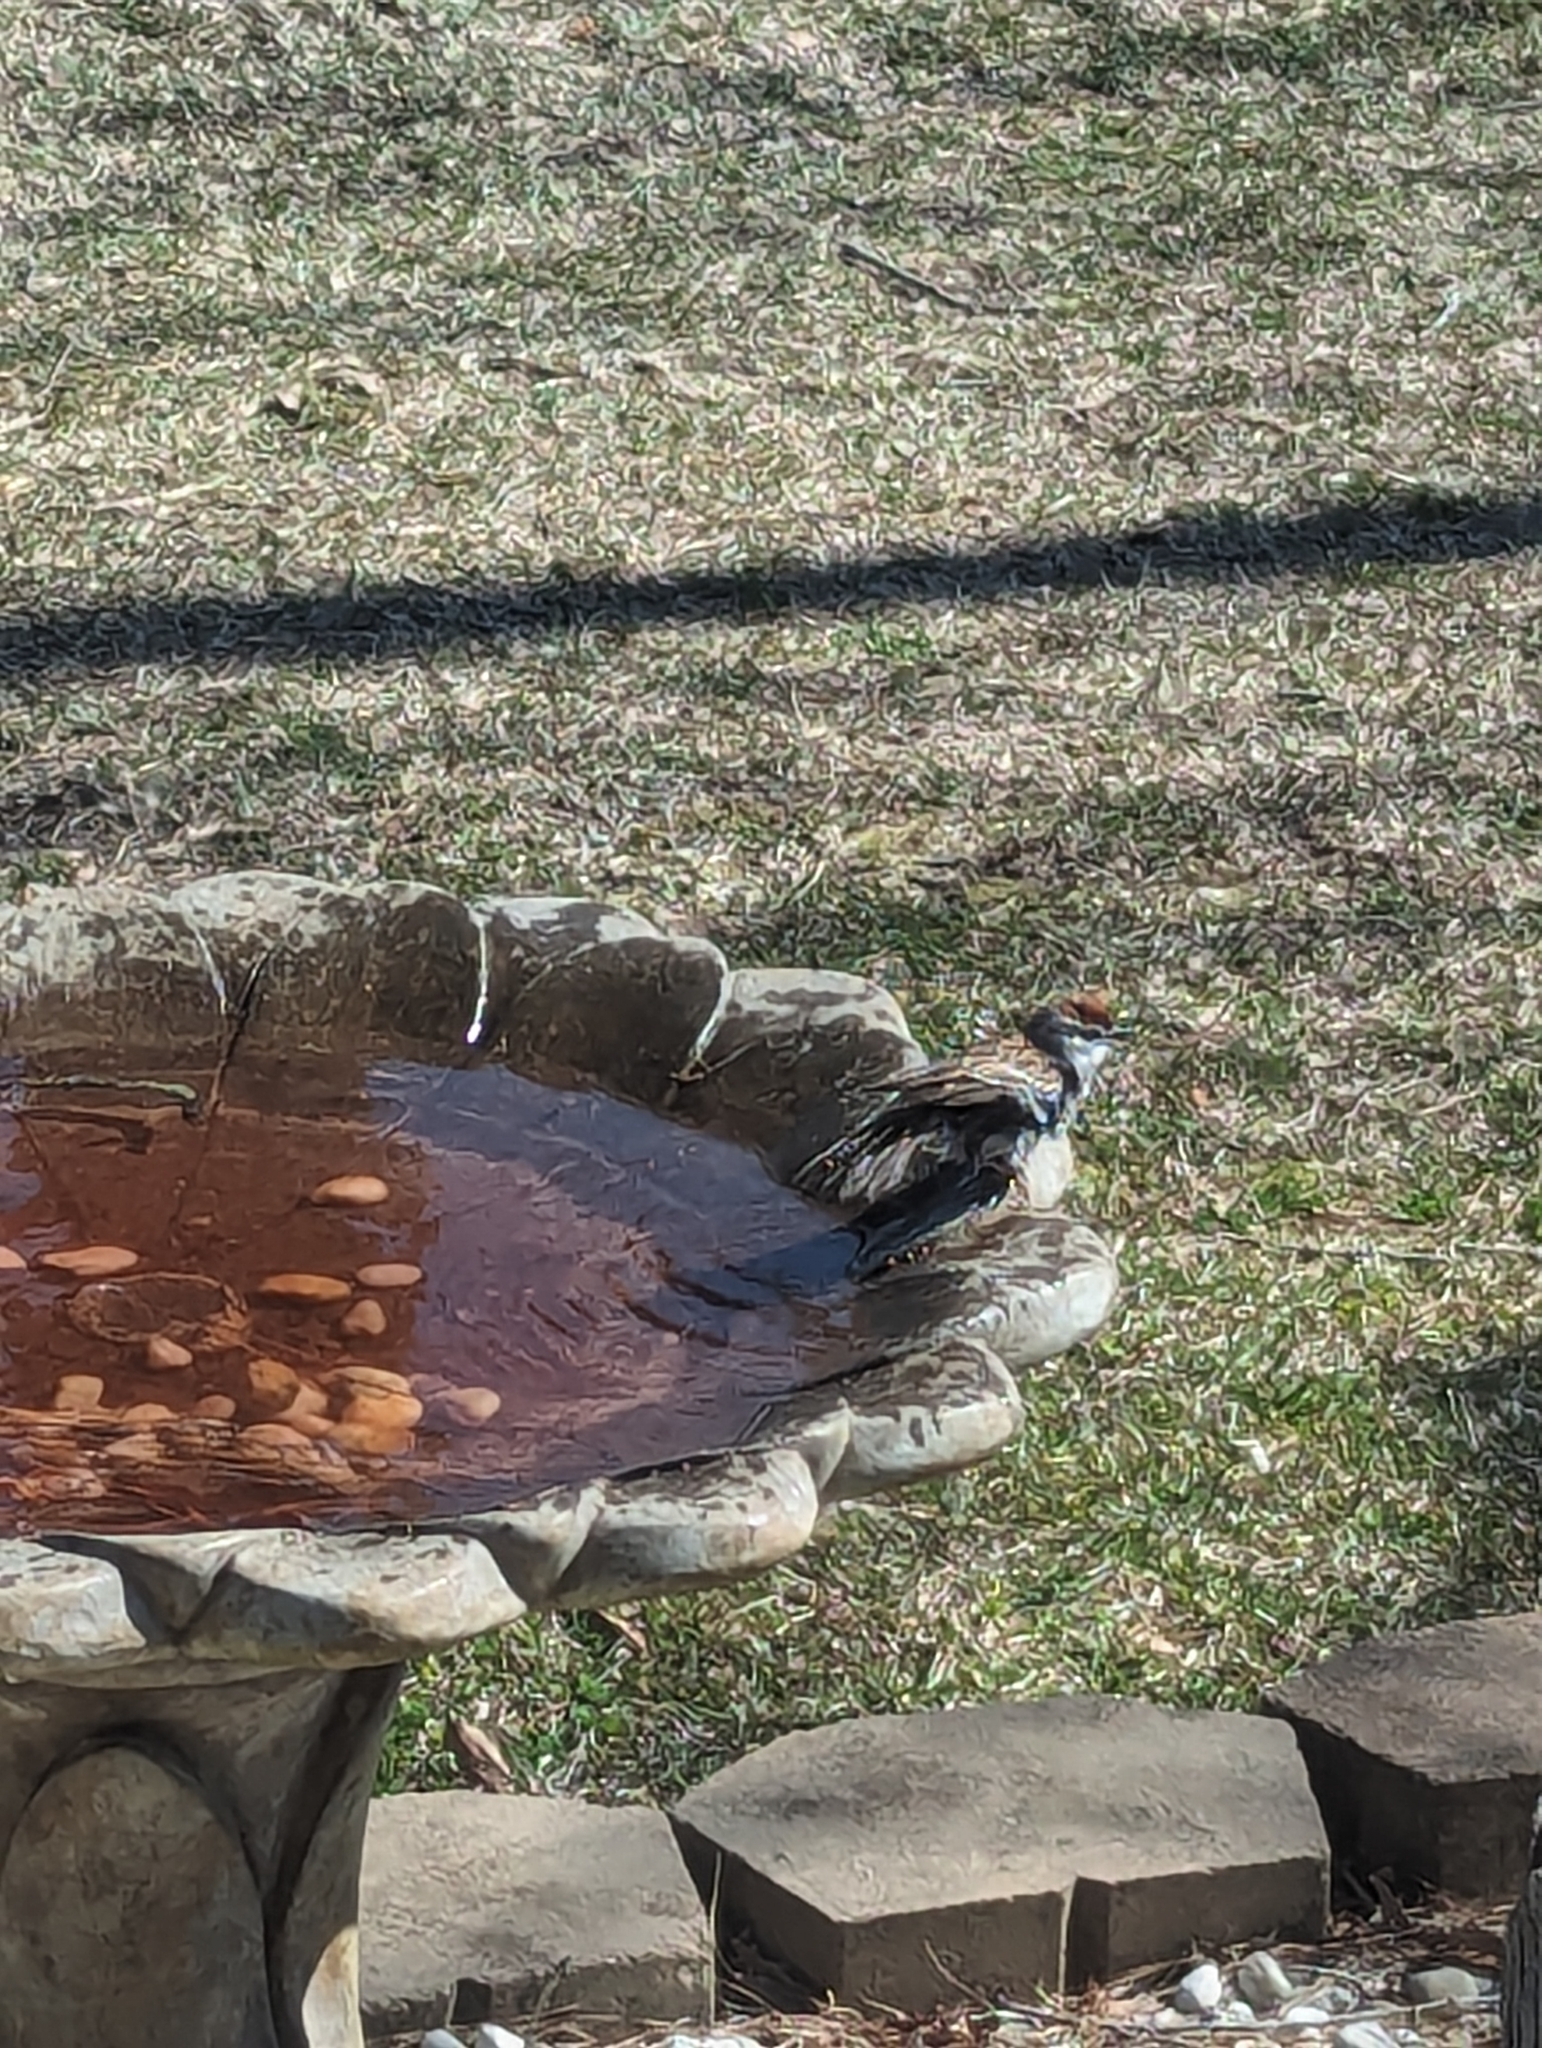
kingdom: Animalia
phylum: Chordata
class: Aves
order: Passeriformes
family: Passerellidae
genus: Spizella
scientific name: Spizella passerina
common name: Chipping sparrow
